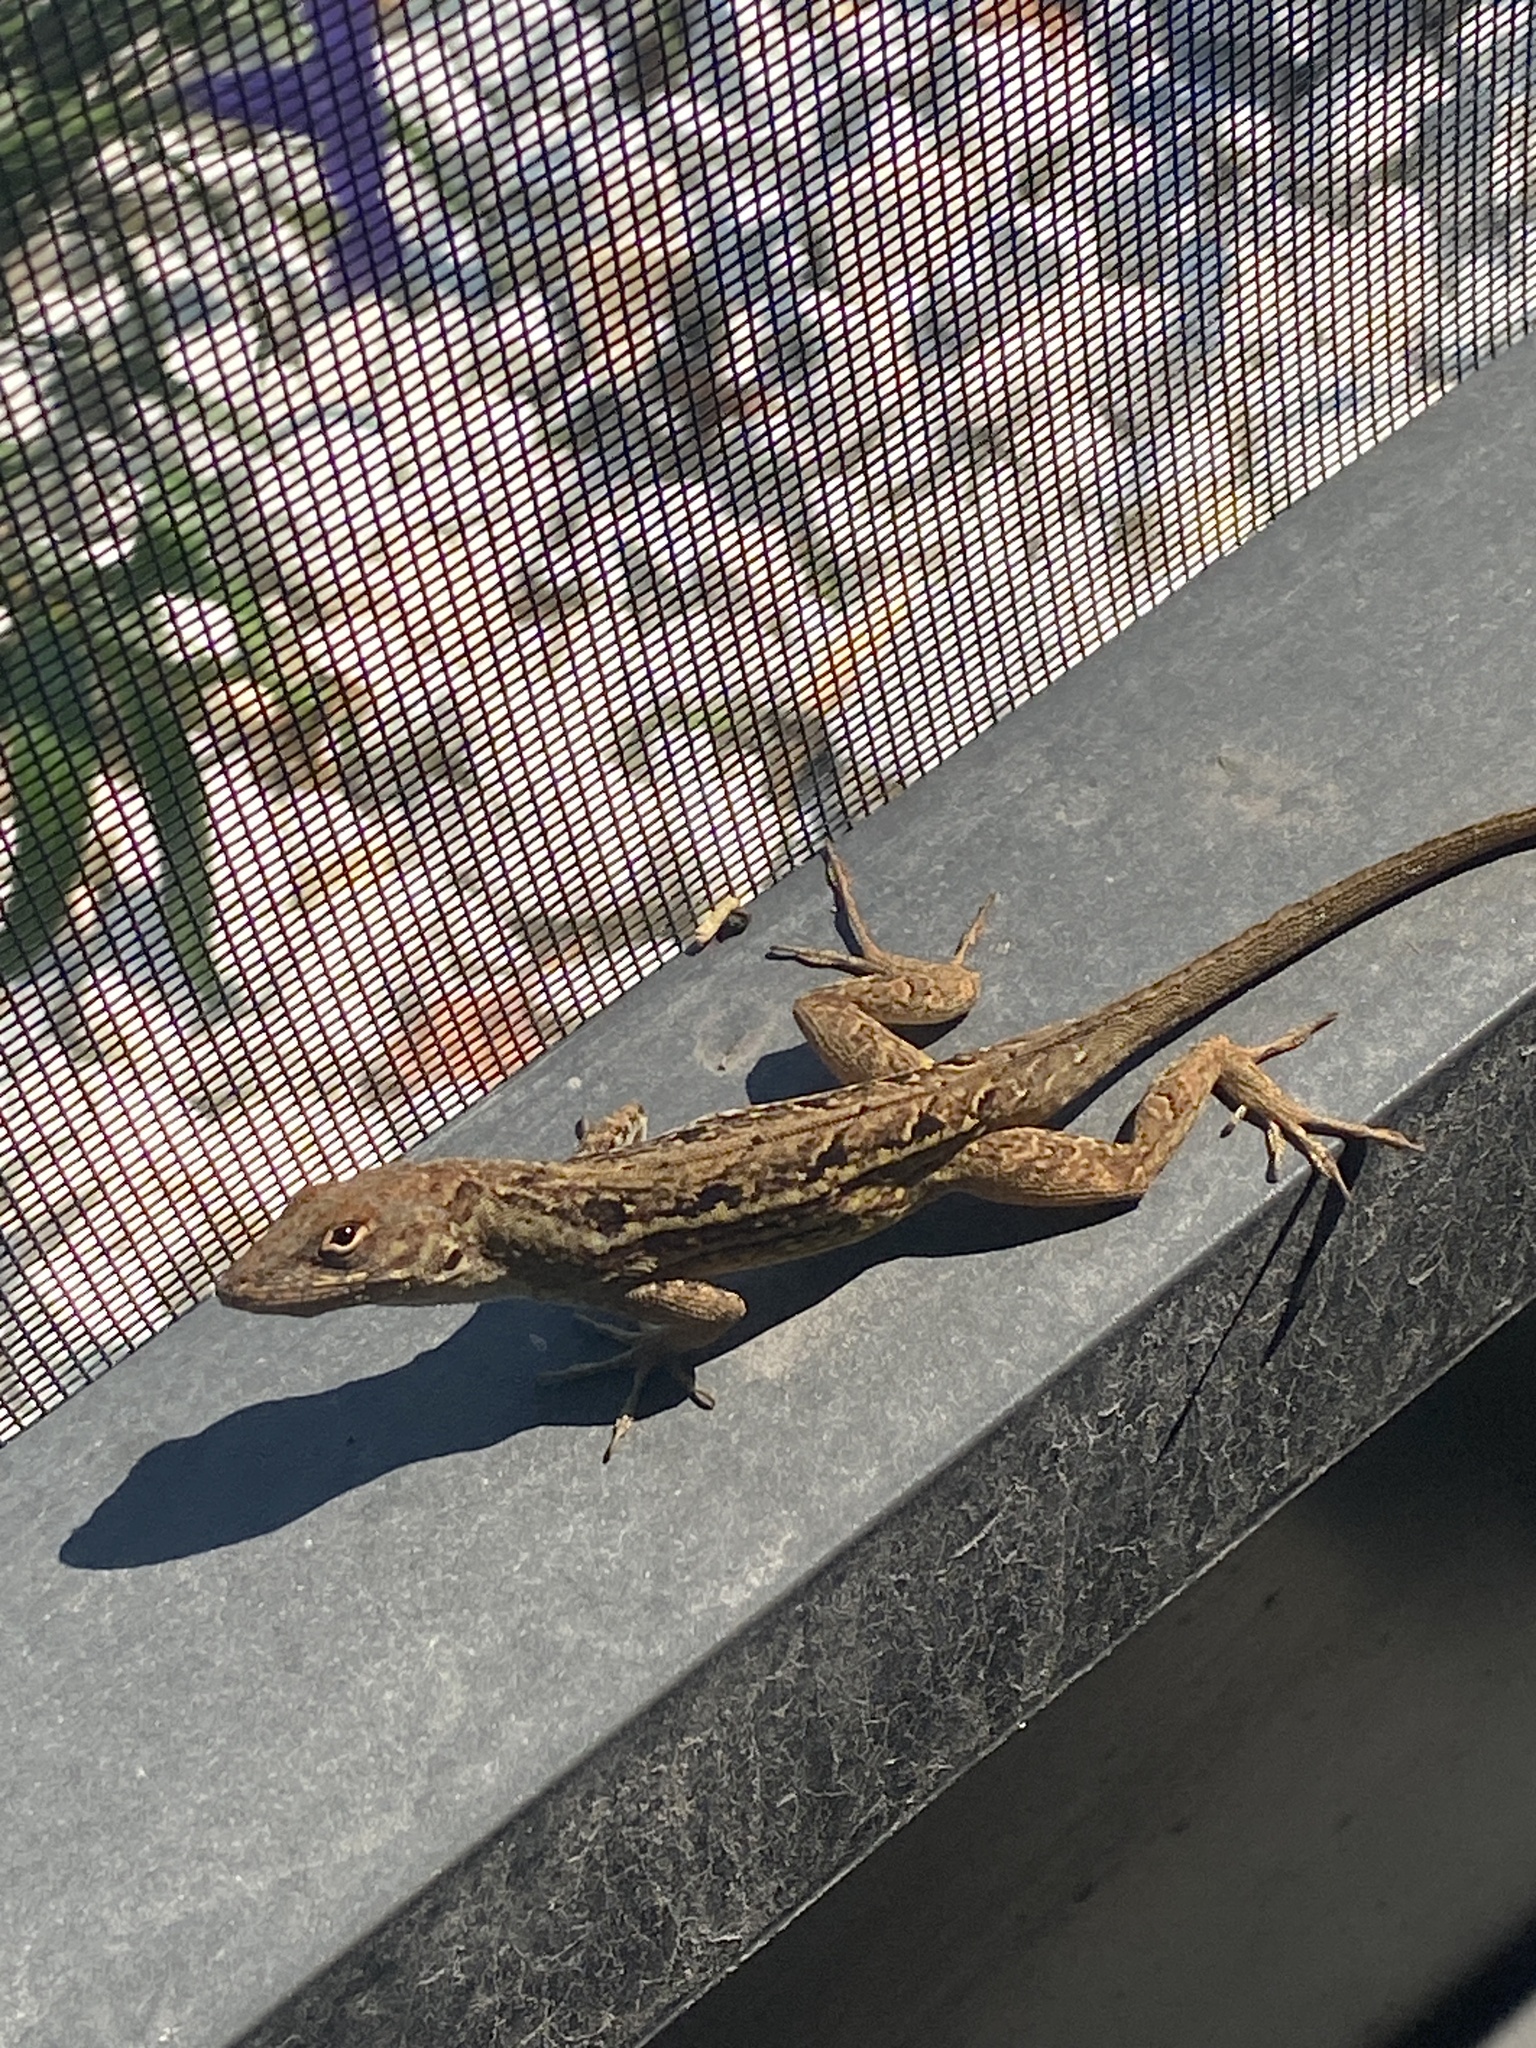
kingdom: Animalia
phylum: Chordata
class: Squamata
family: Dactyloidae
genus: Anolis
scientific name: Anolis sagrei
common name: Brown anole
